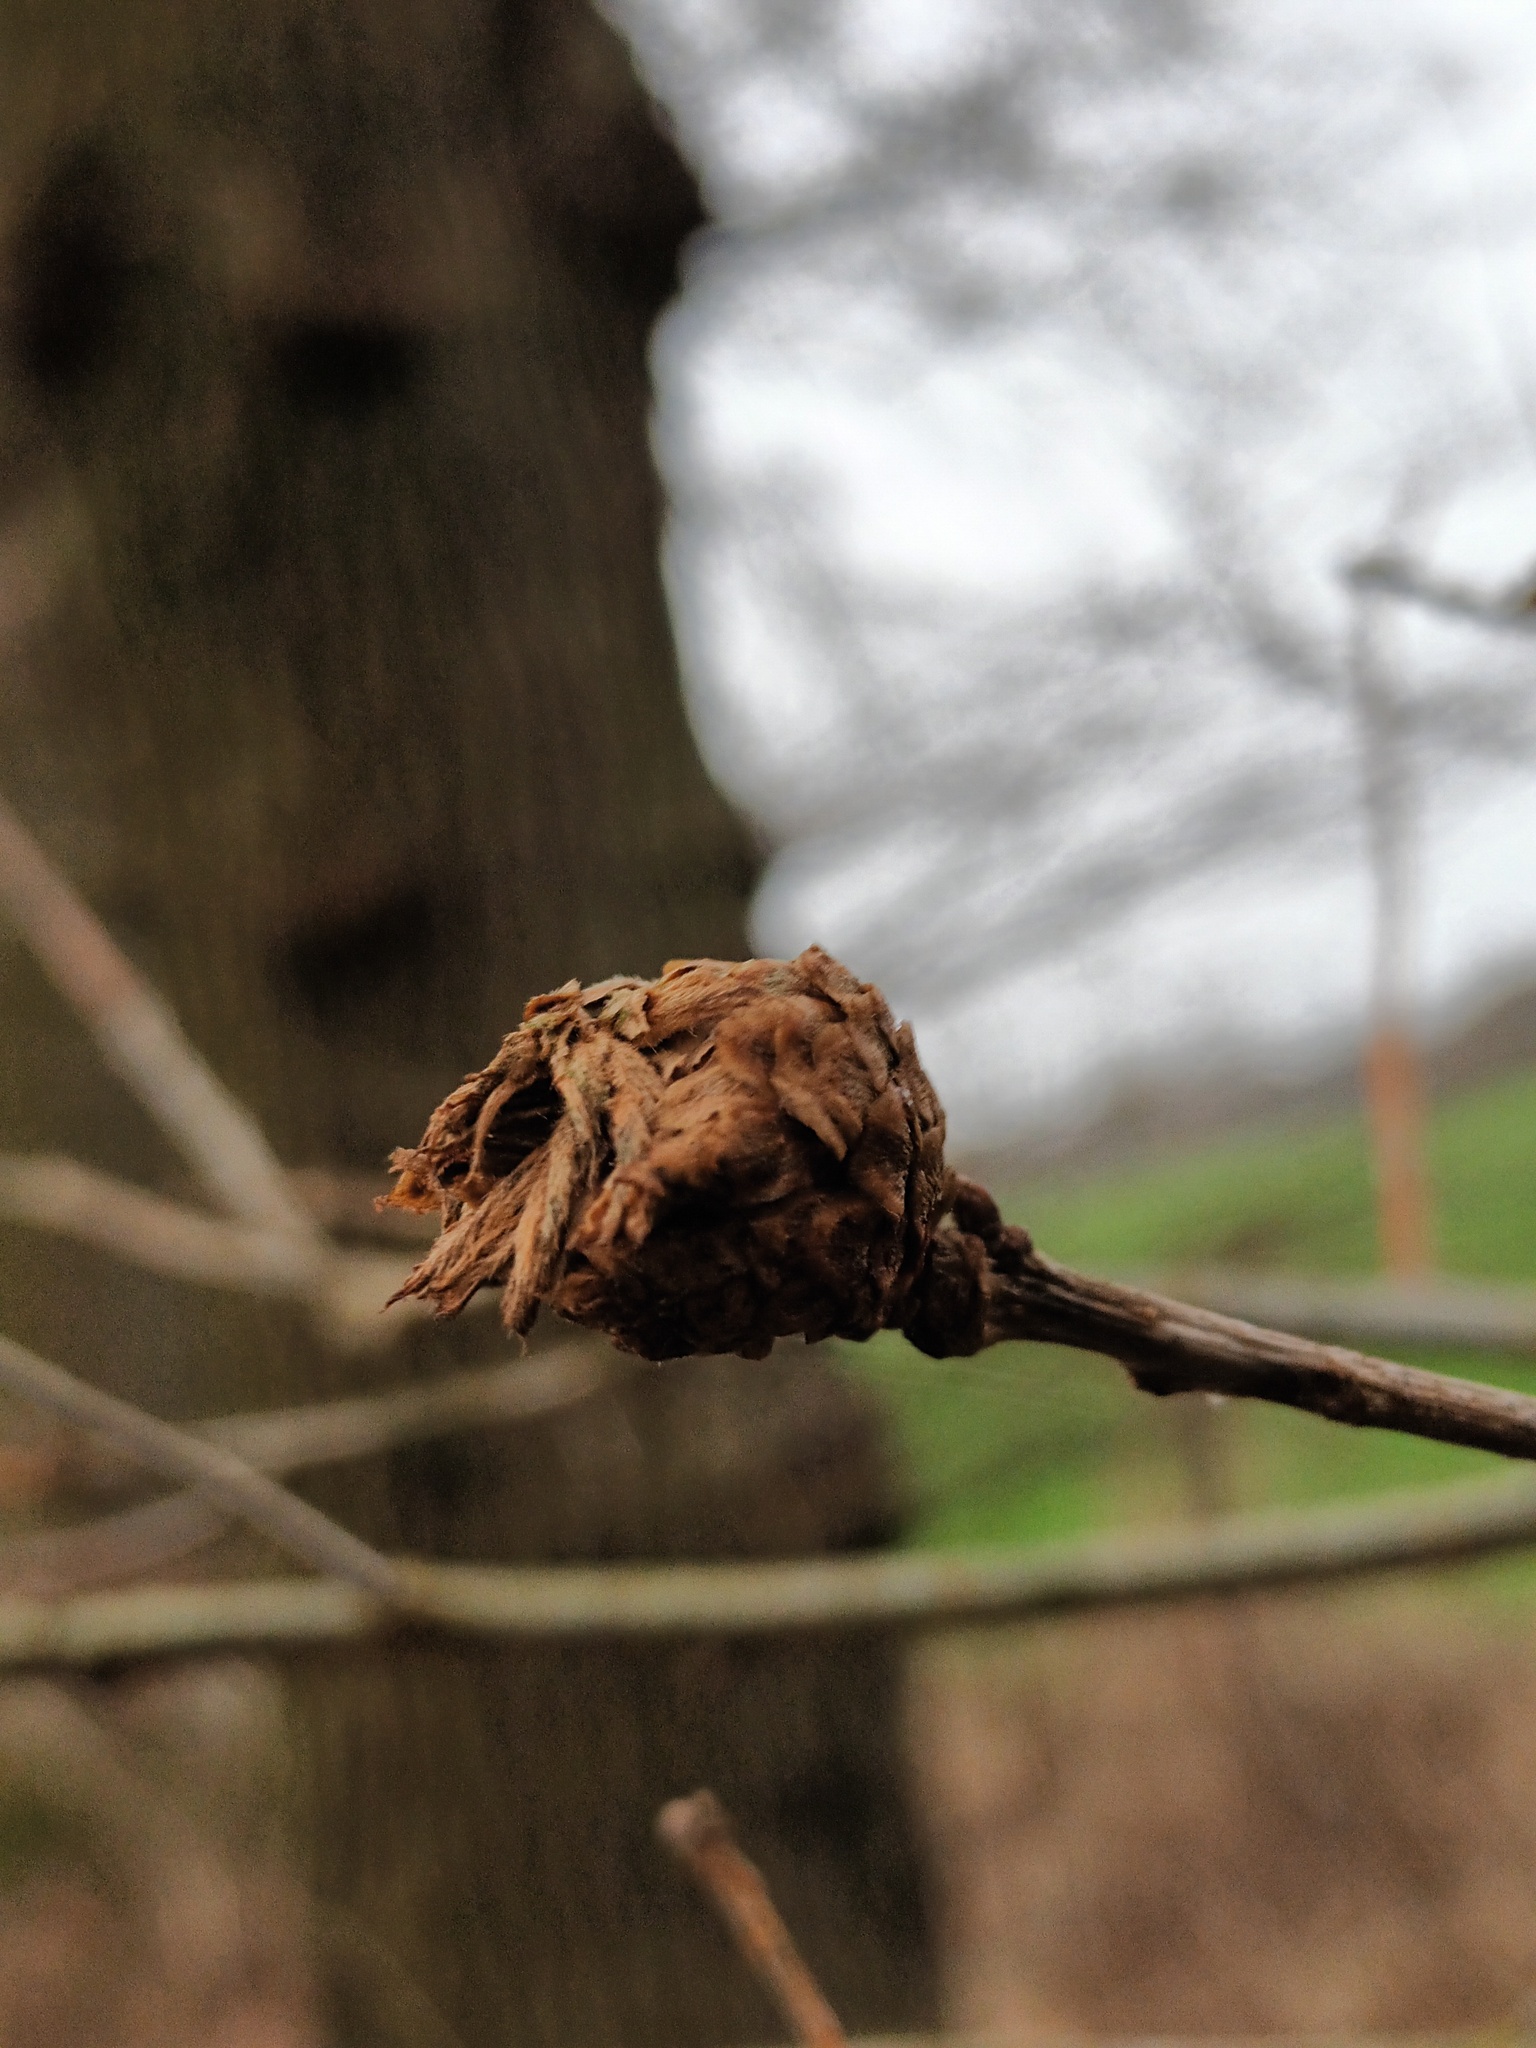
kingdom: Animalia
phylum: Arthropoda
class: Insecta
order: Hymenoptera
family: Cynipidae
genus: Andricus
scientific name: Andricus foecundatrix
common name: Artichoke gall
